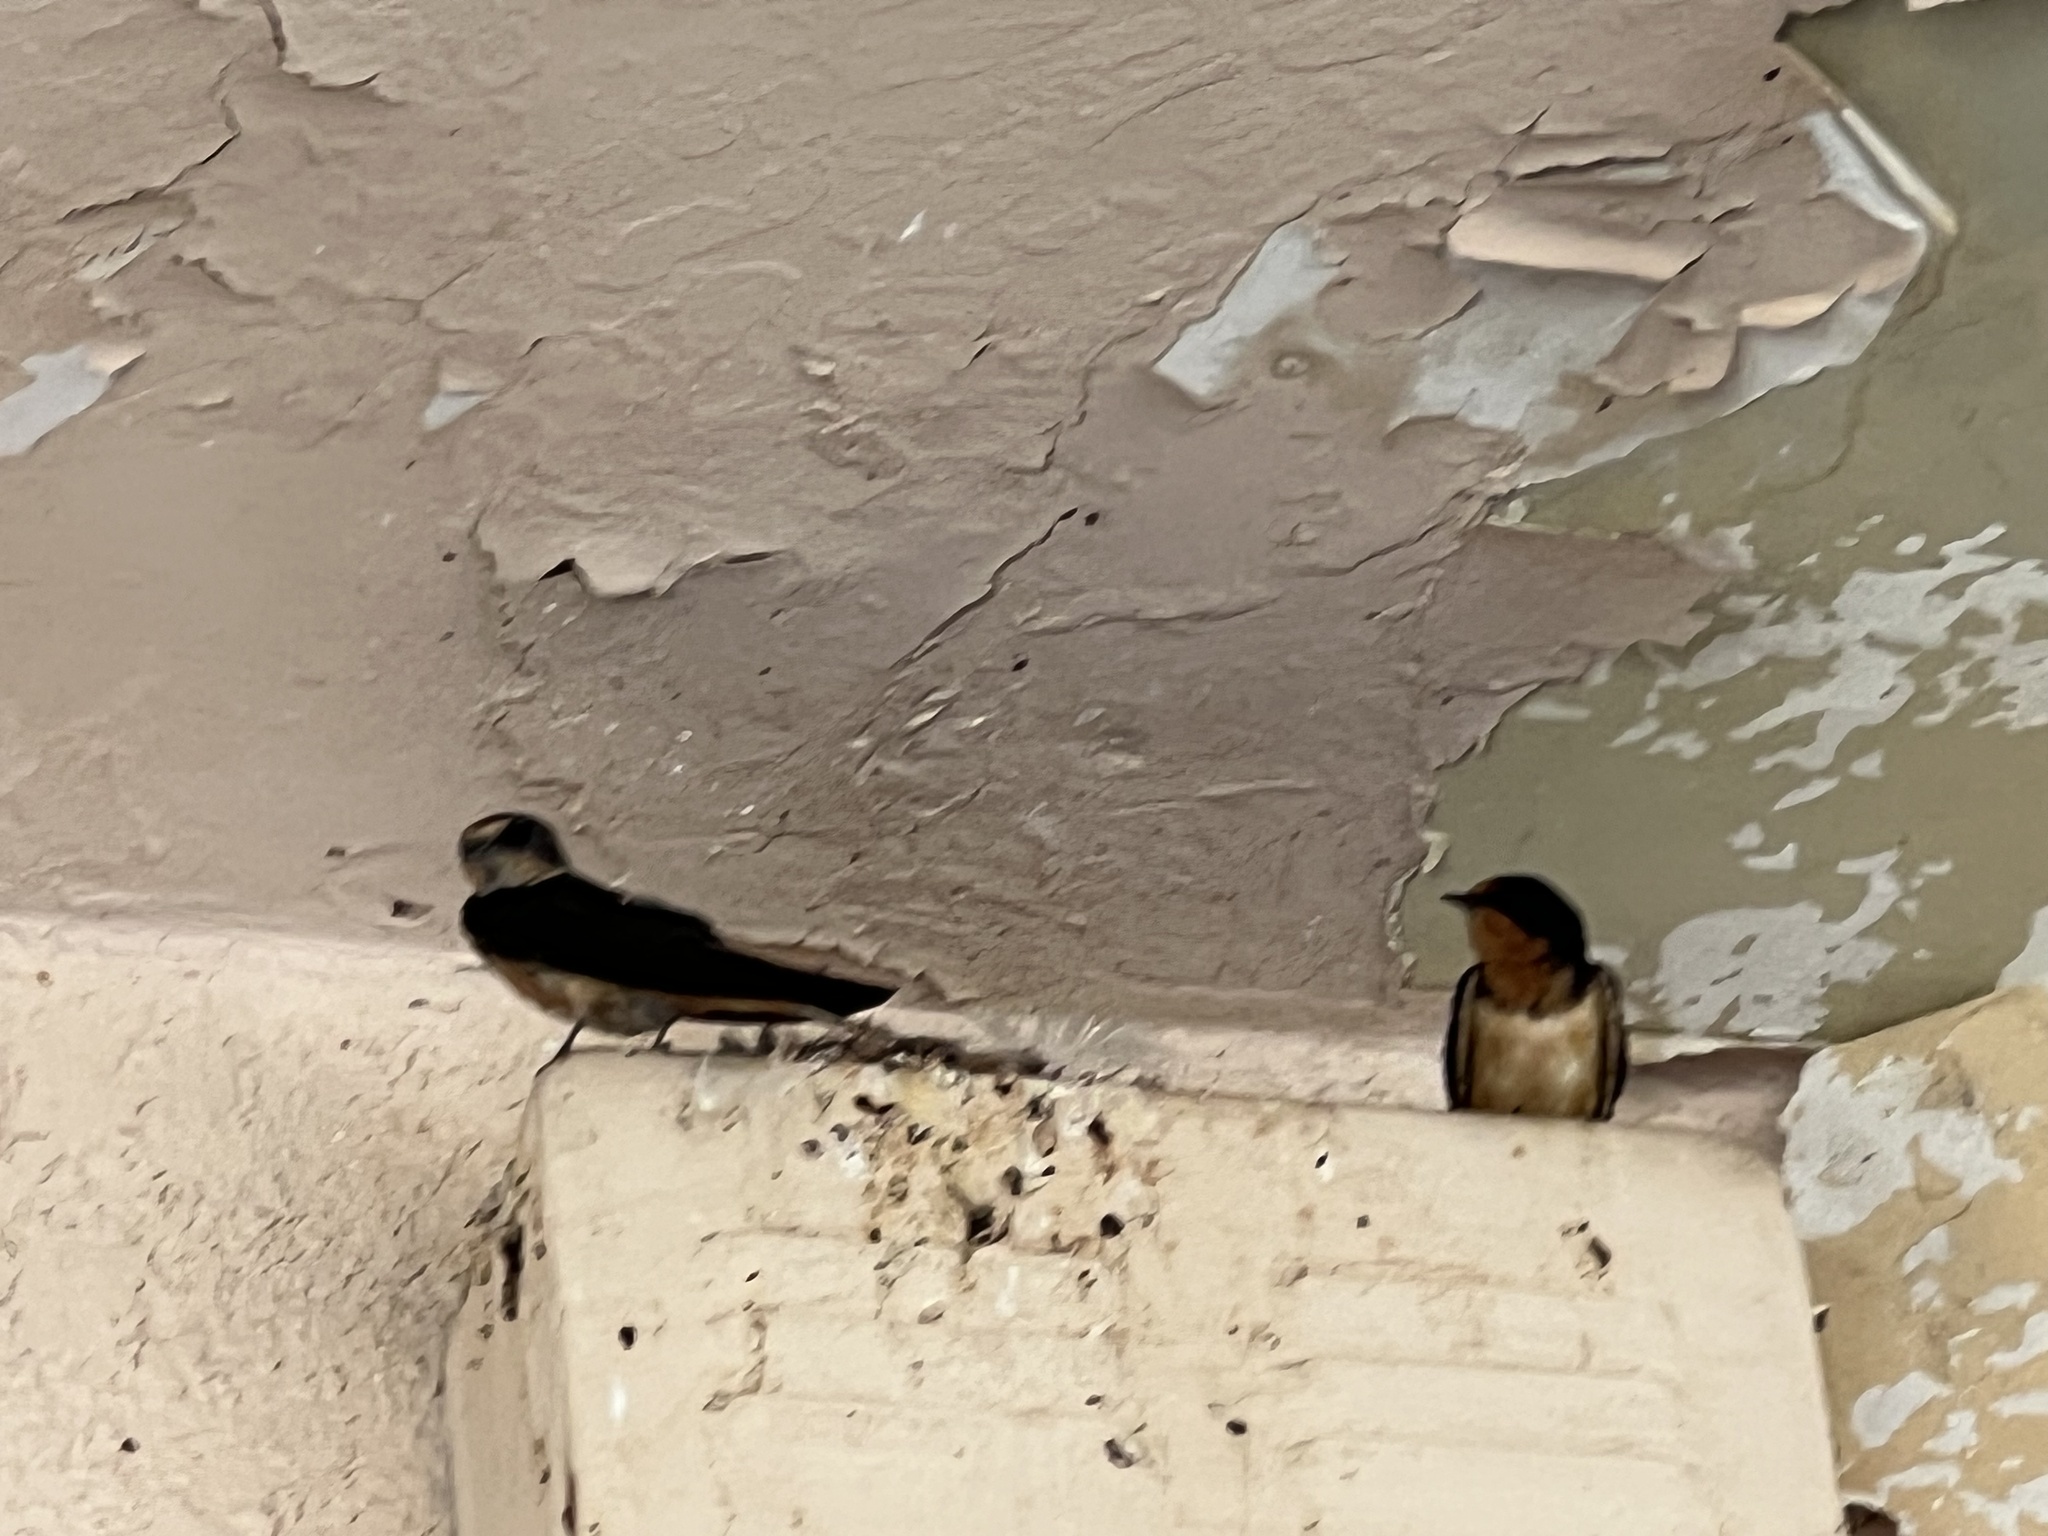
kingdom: Animalia
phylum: Chordata
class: Aves
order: Passeriformes
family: Hirundinidae
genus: Hirundo
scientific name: Hirundo rustica
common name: Barn swallow
